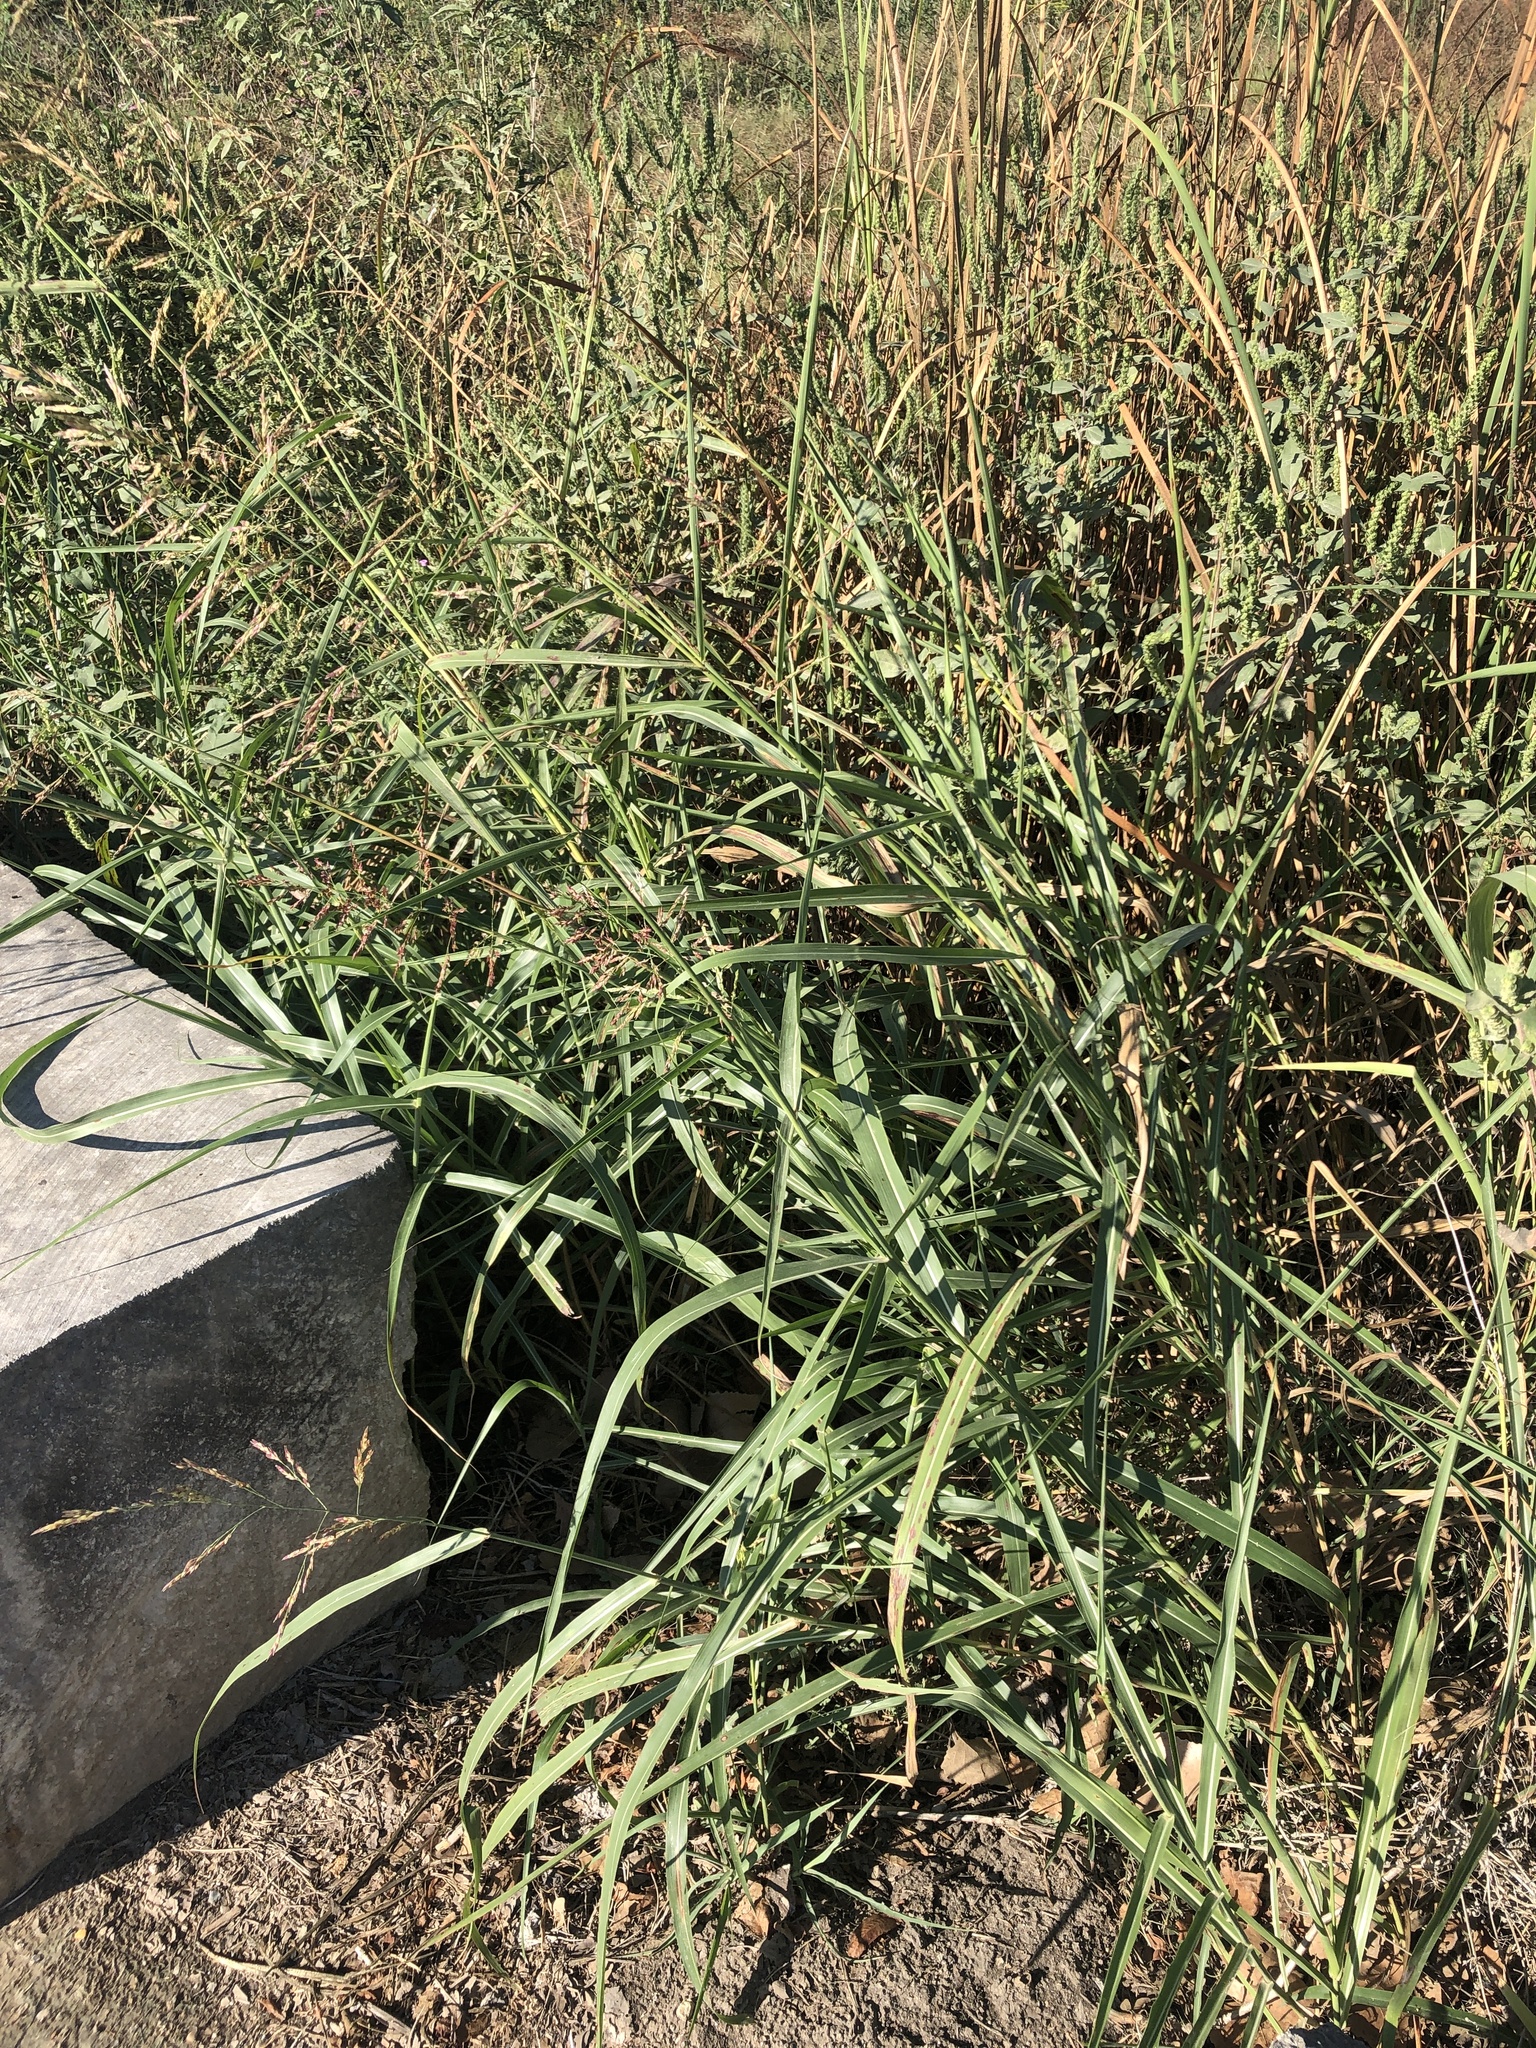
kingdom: Plantae
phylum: Tracheophyta
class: Liliopsida
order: Poales
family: Poaceae
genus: Sorghum
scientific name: Sorghum halepense
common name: Johnson-grass
